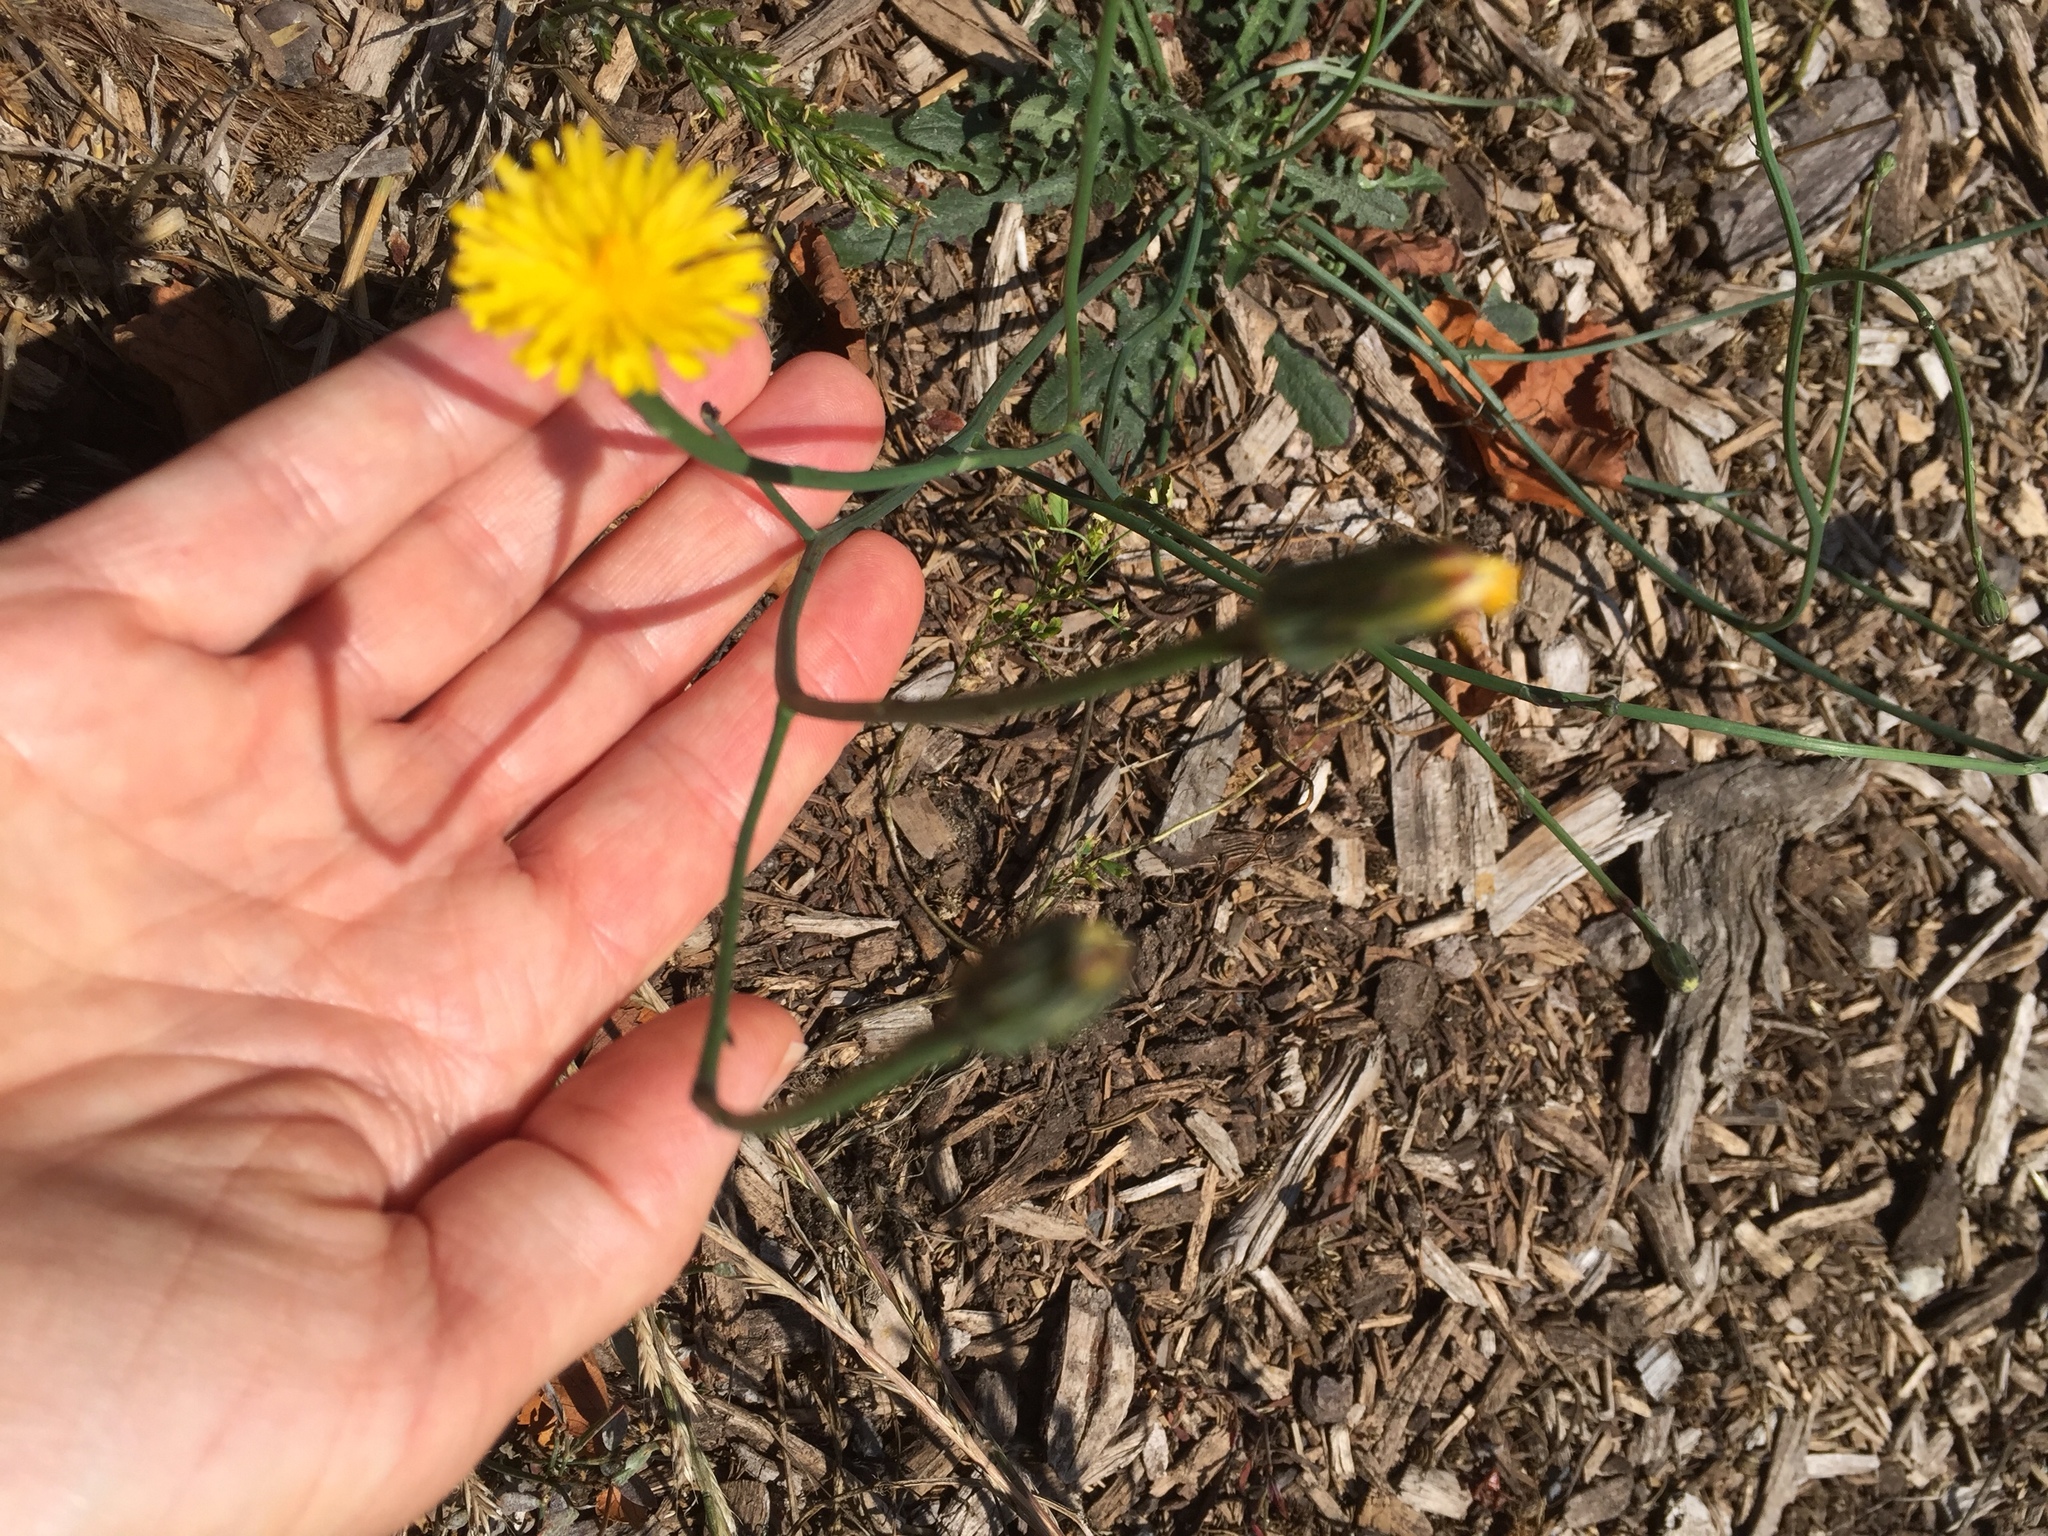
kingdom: Plantae
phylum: Tracheophyta
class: Magnoliopsida
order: Asterales
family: Asteraceae
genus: Hypochaeris
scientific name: Hypochaeris radicata
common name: Flatweed
